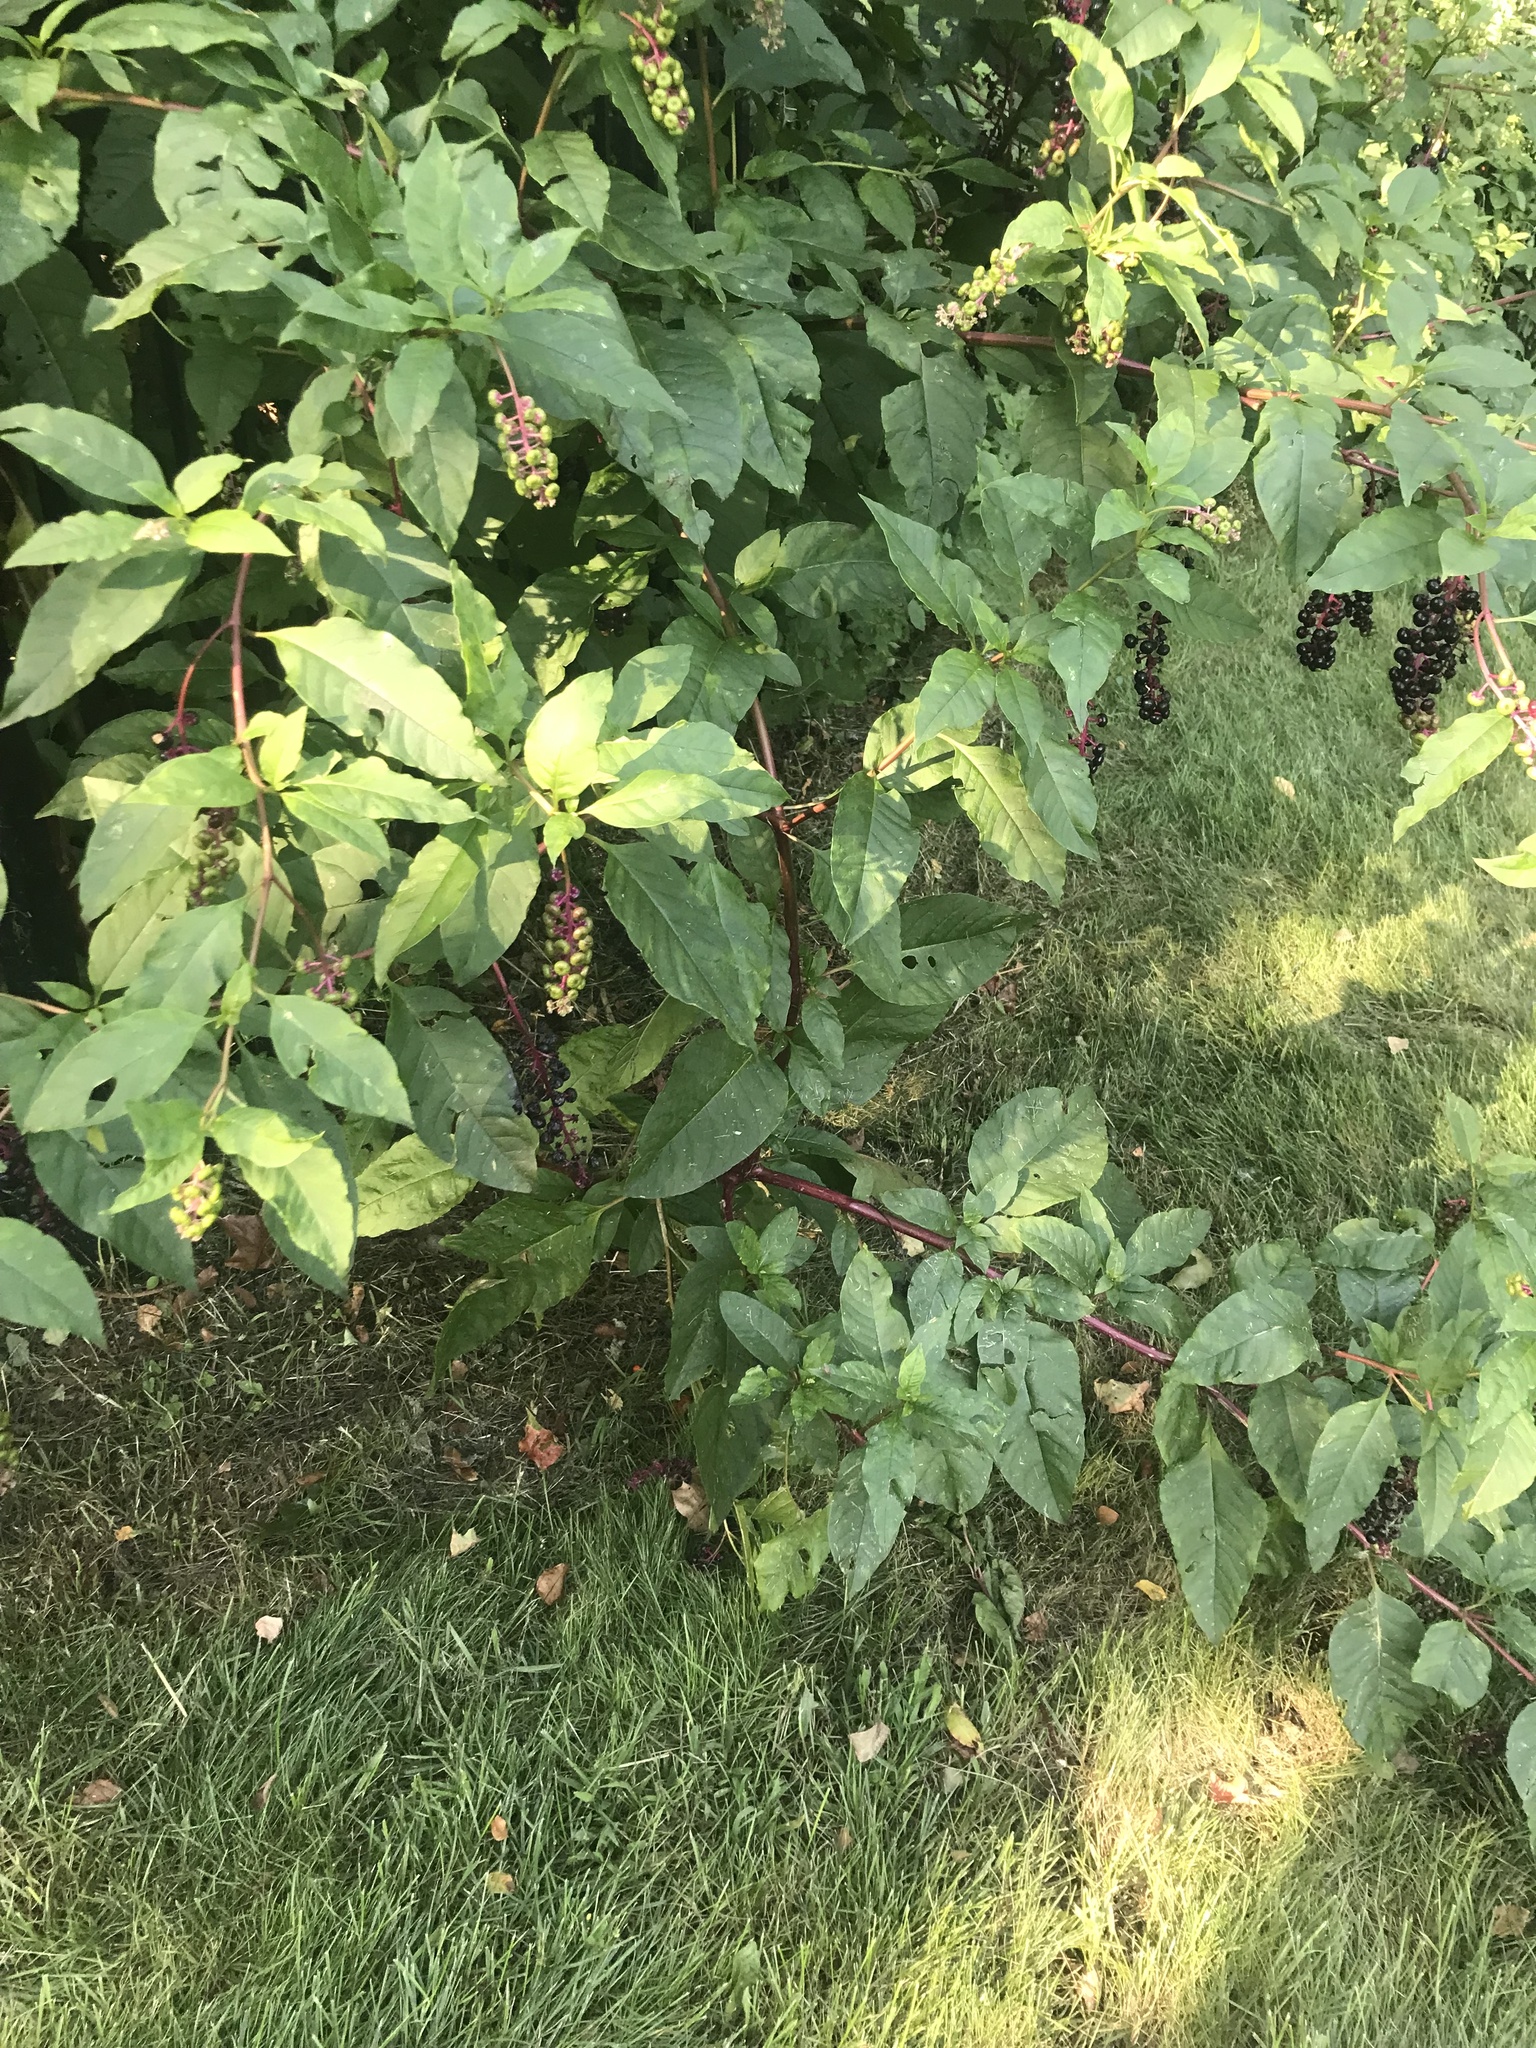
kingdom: Plantae
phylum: Tracheophyta
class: Magnoliopsida
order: Caryophyllales
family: Phytolaccaceae
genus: Phytolacca
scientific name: Phytolacca americana
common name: American pokeweed
